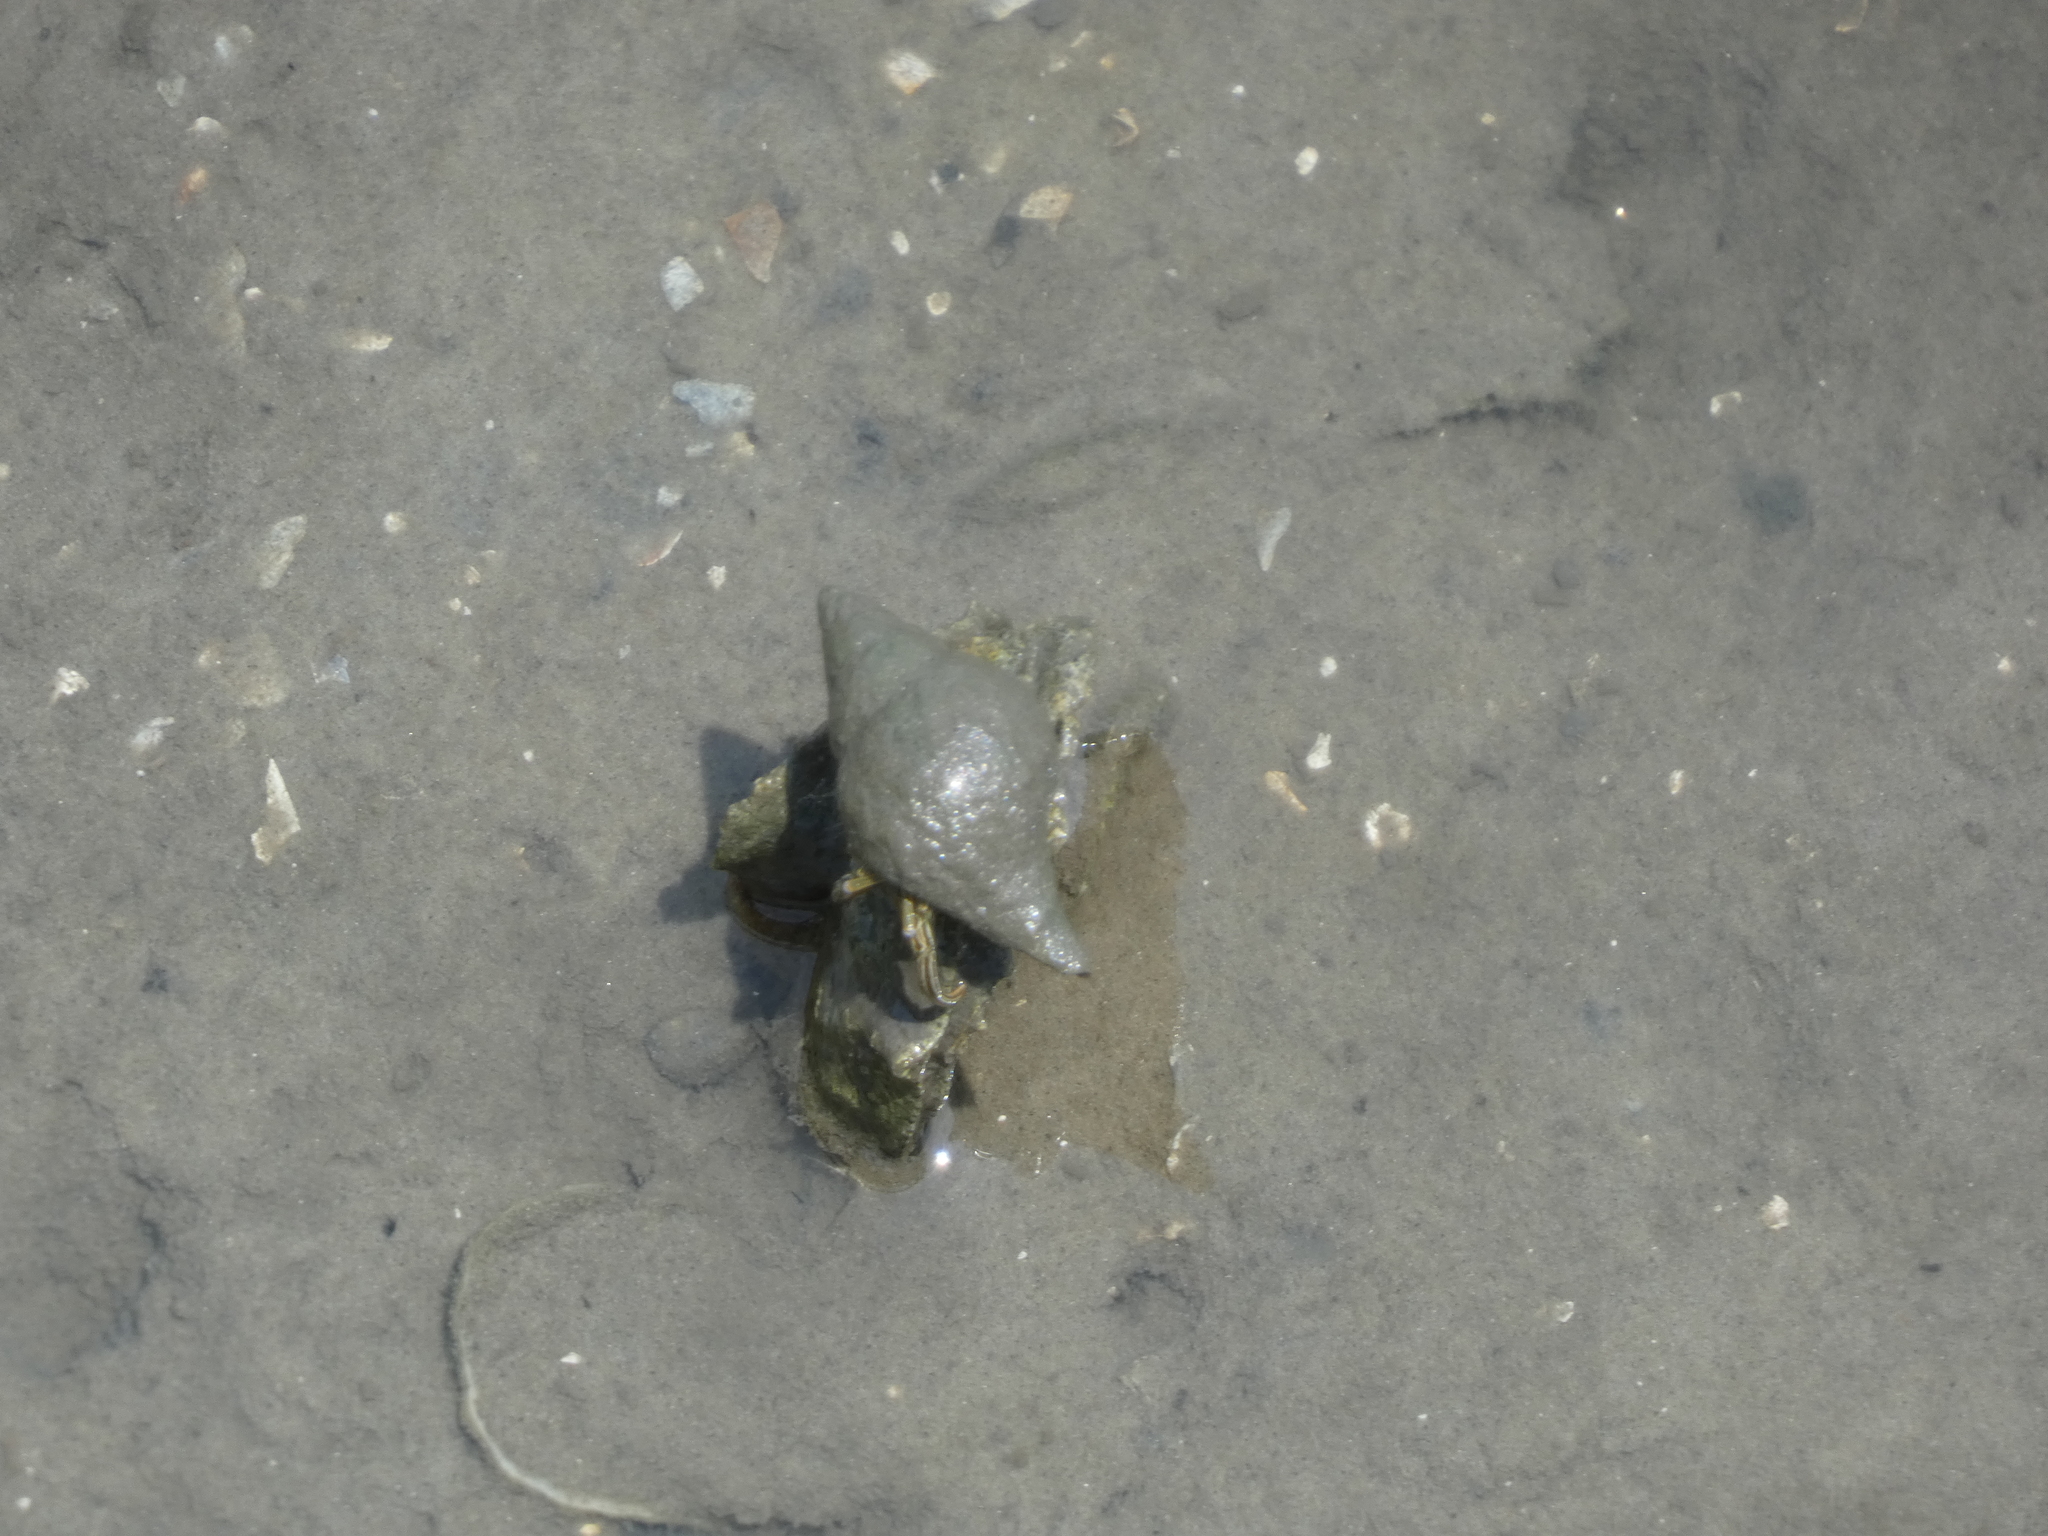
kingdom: Animalia
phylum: Arthropoda
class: Malacostraca
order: Decapoda
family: Diogenidae
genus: Clibanarius
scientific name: Clibanarius vittatus
